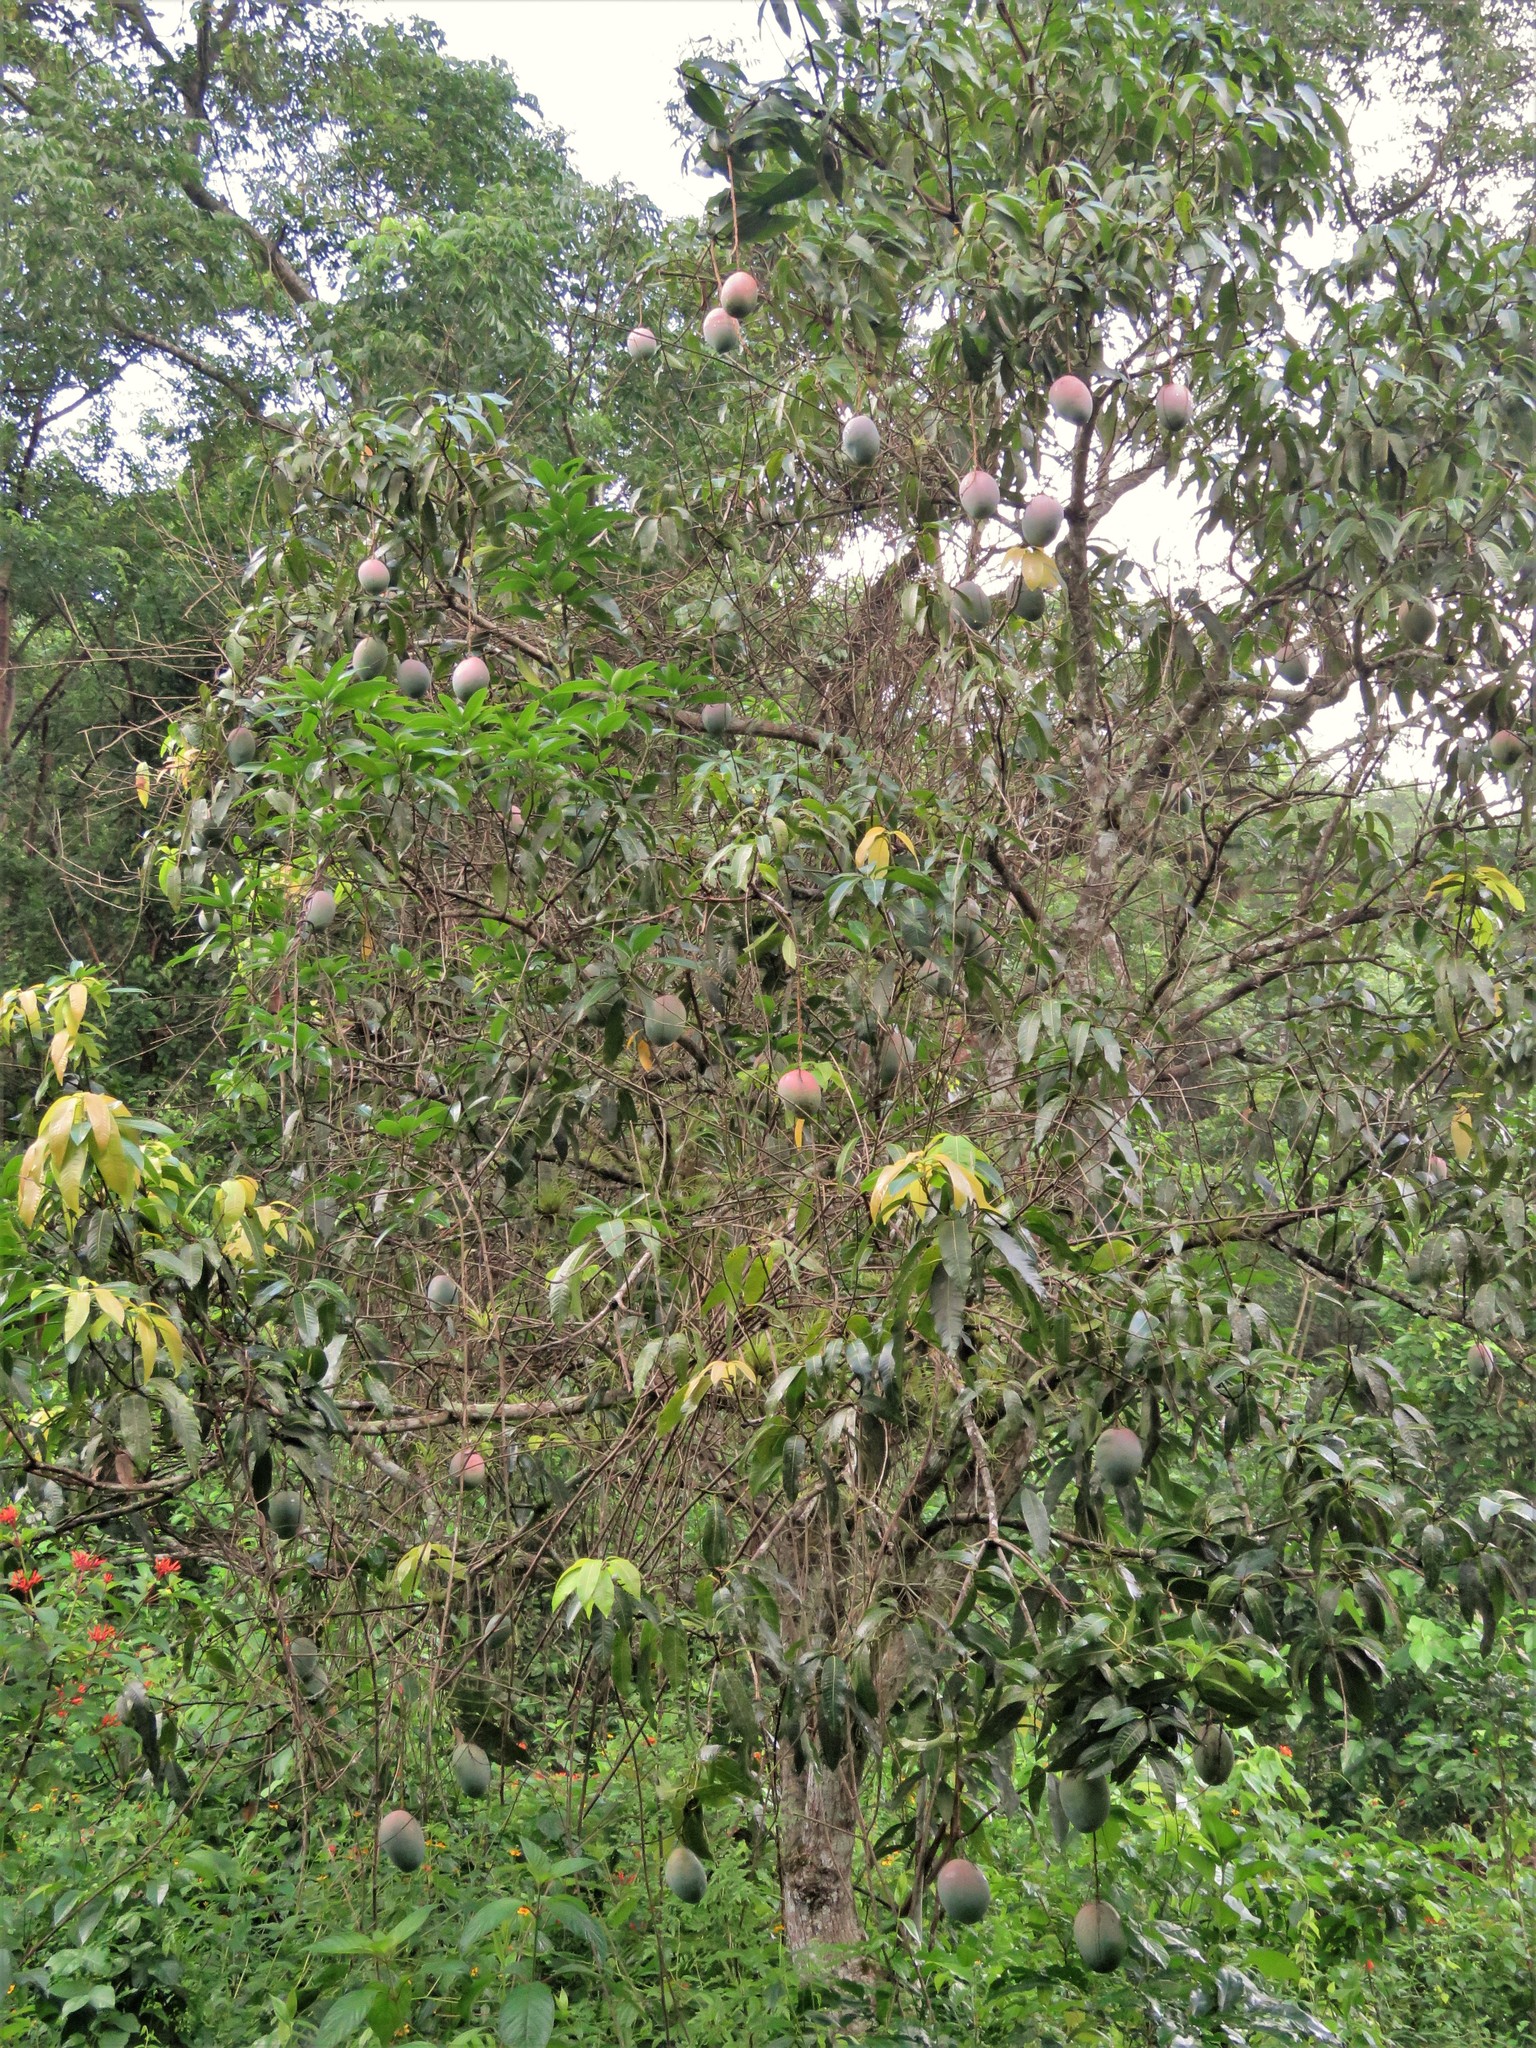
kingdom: Plantae
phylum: Tracheophyta
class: Magnoliopsida
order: Sapindales
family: Anacardiaceae
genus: Mangifera
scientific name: Mangifera indica
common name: Mango
